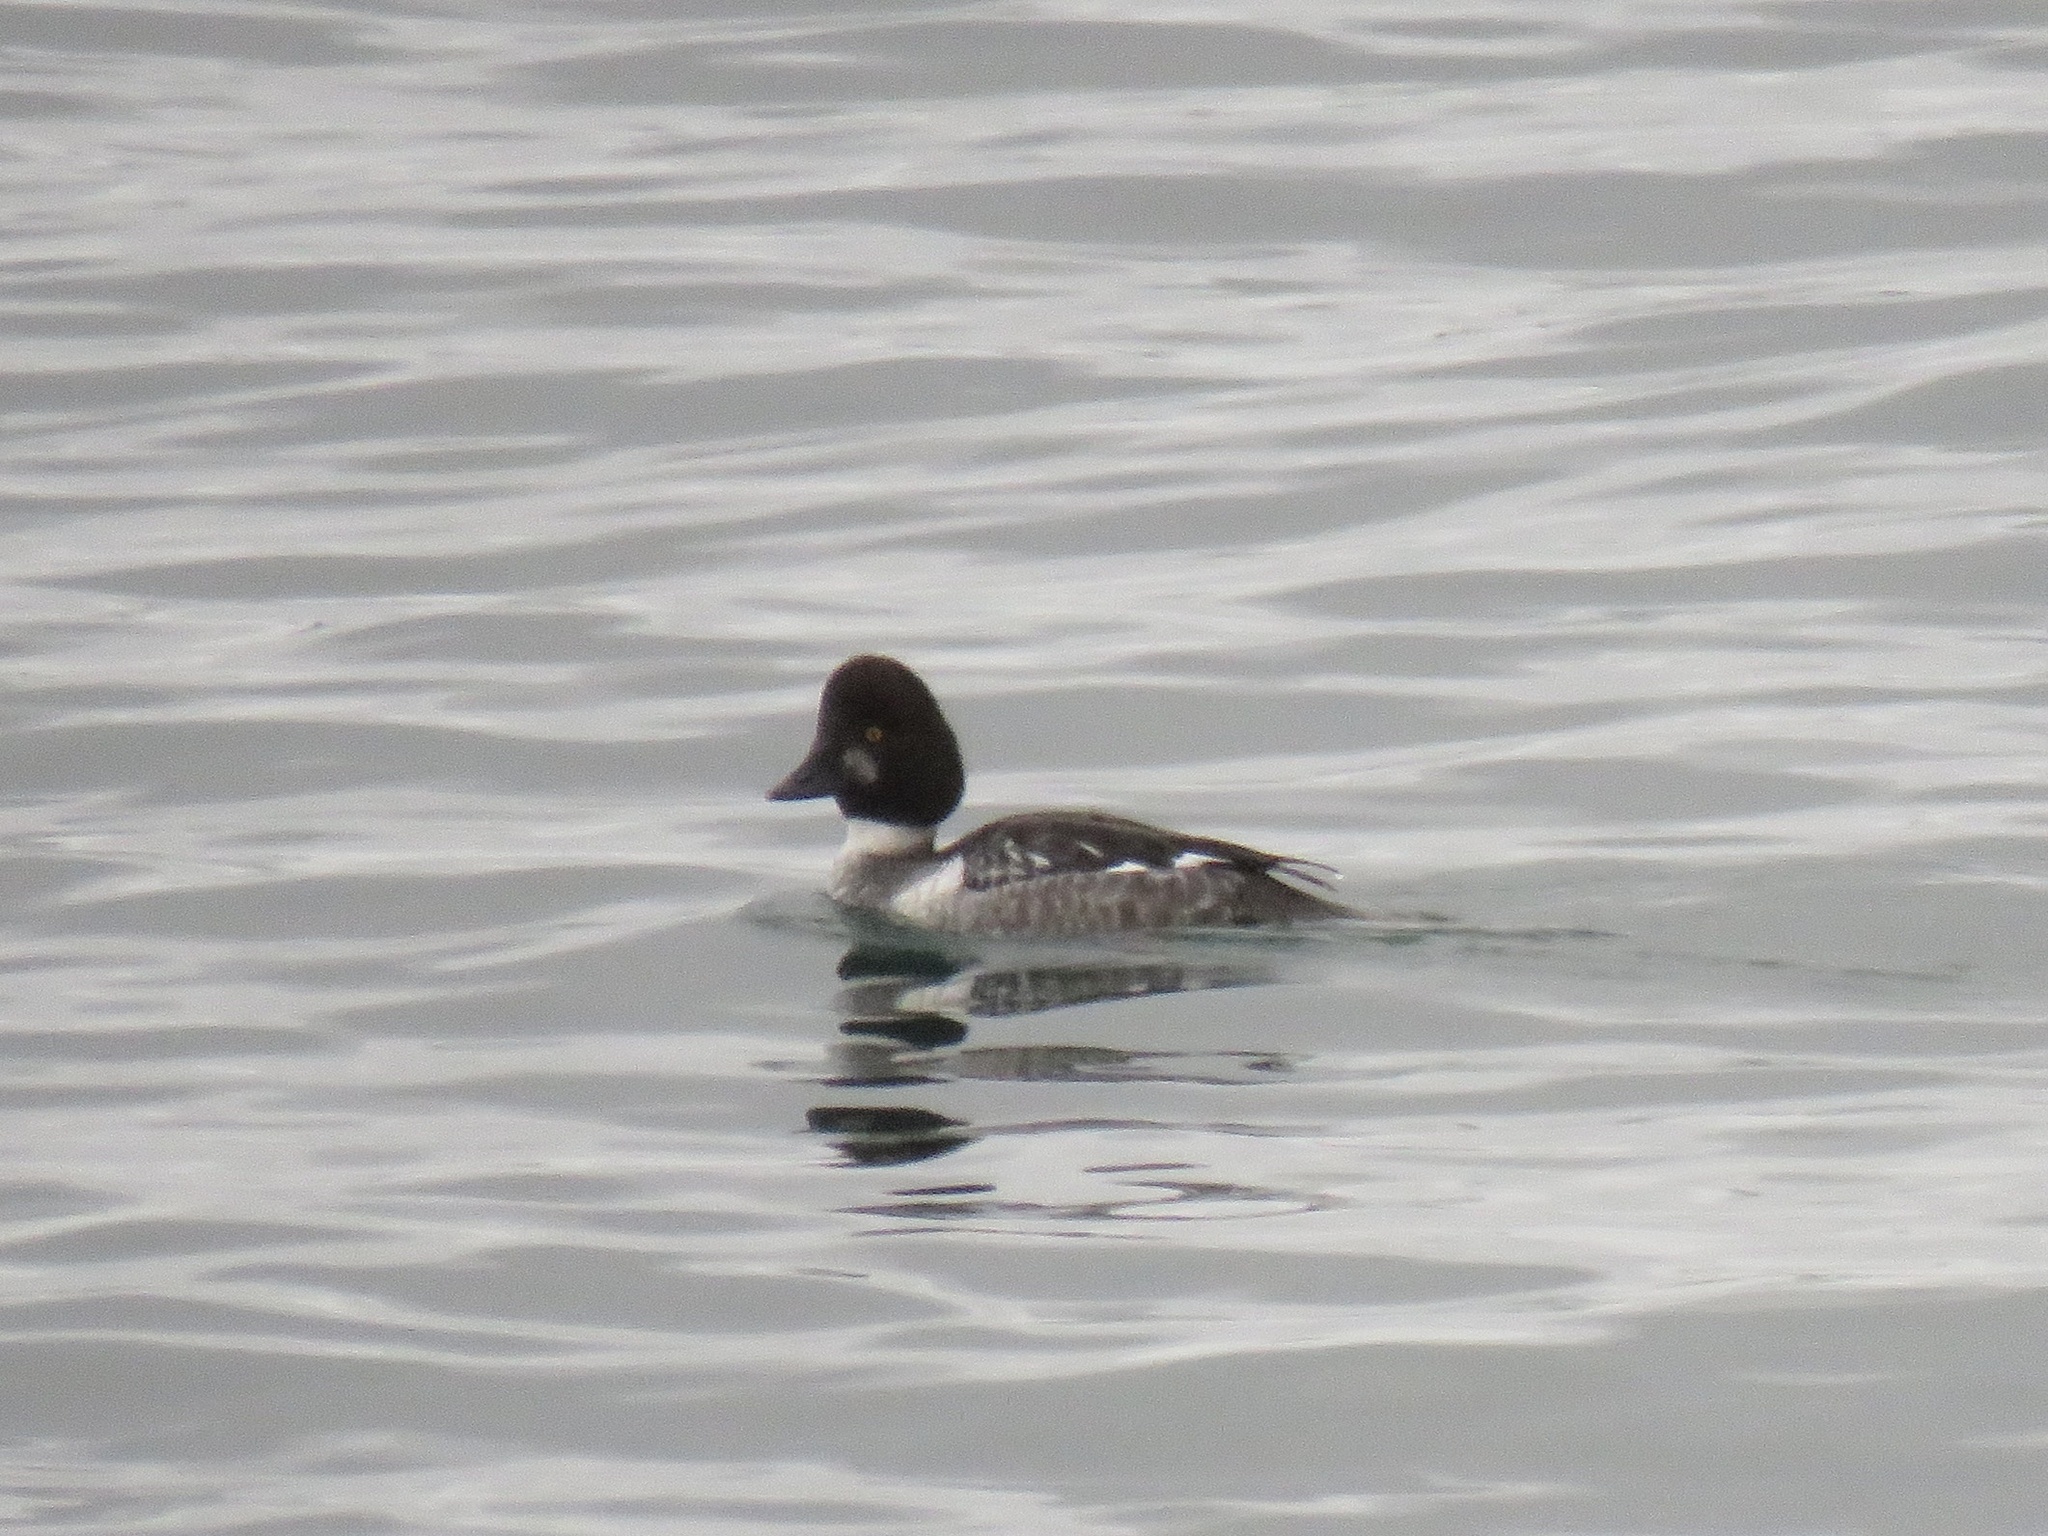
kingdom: Animalia
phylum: Chordata
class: Aves
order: Anseriformes
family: Anatidae
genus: Bucephala
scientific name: Bucephala clangula
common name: Common goldeneye
